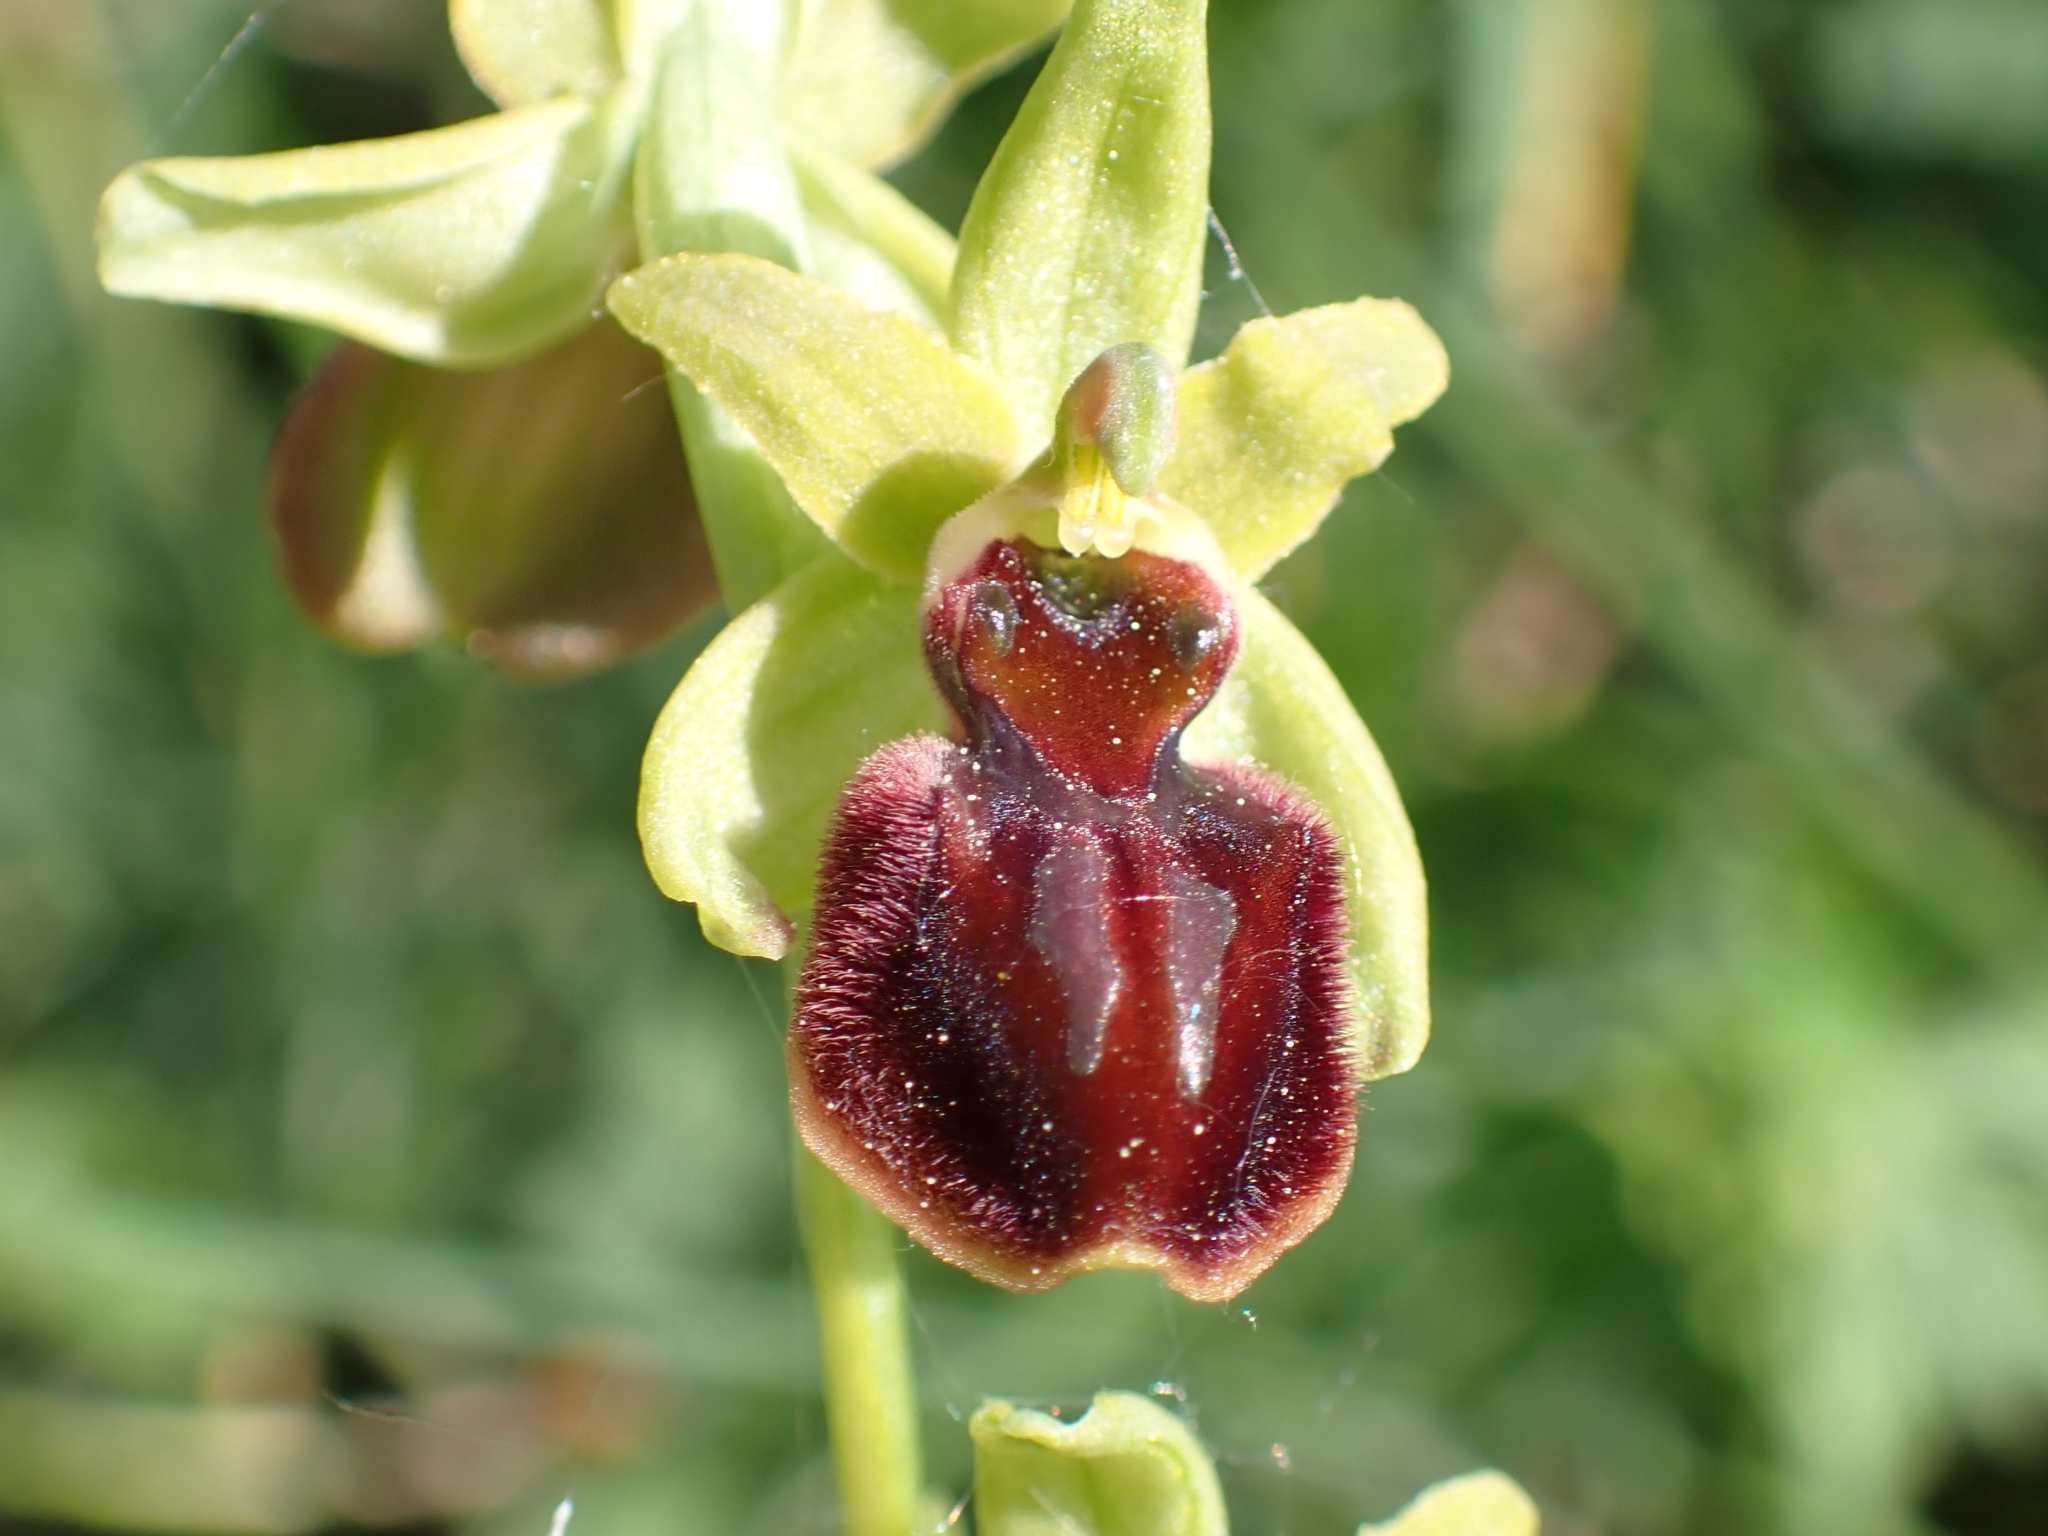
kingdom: Plantae
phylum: Tracheophyta
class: Liliopsida
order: Asparagales
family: Orchidaceae
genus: Ophrys
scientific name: Ophrys sphegodes
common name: Early spider-orchid
